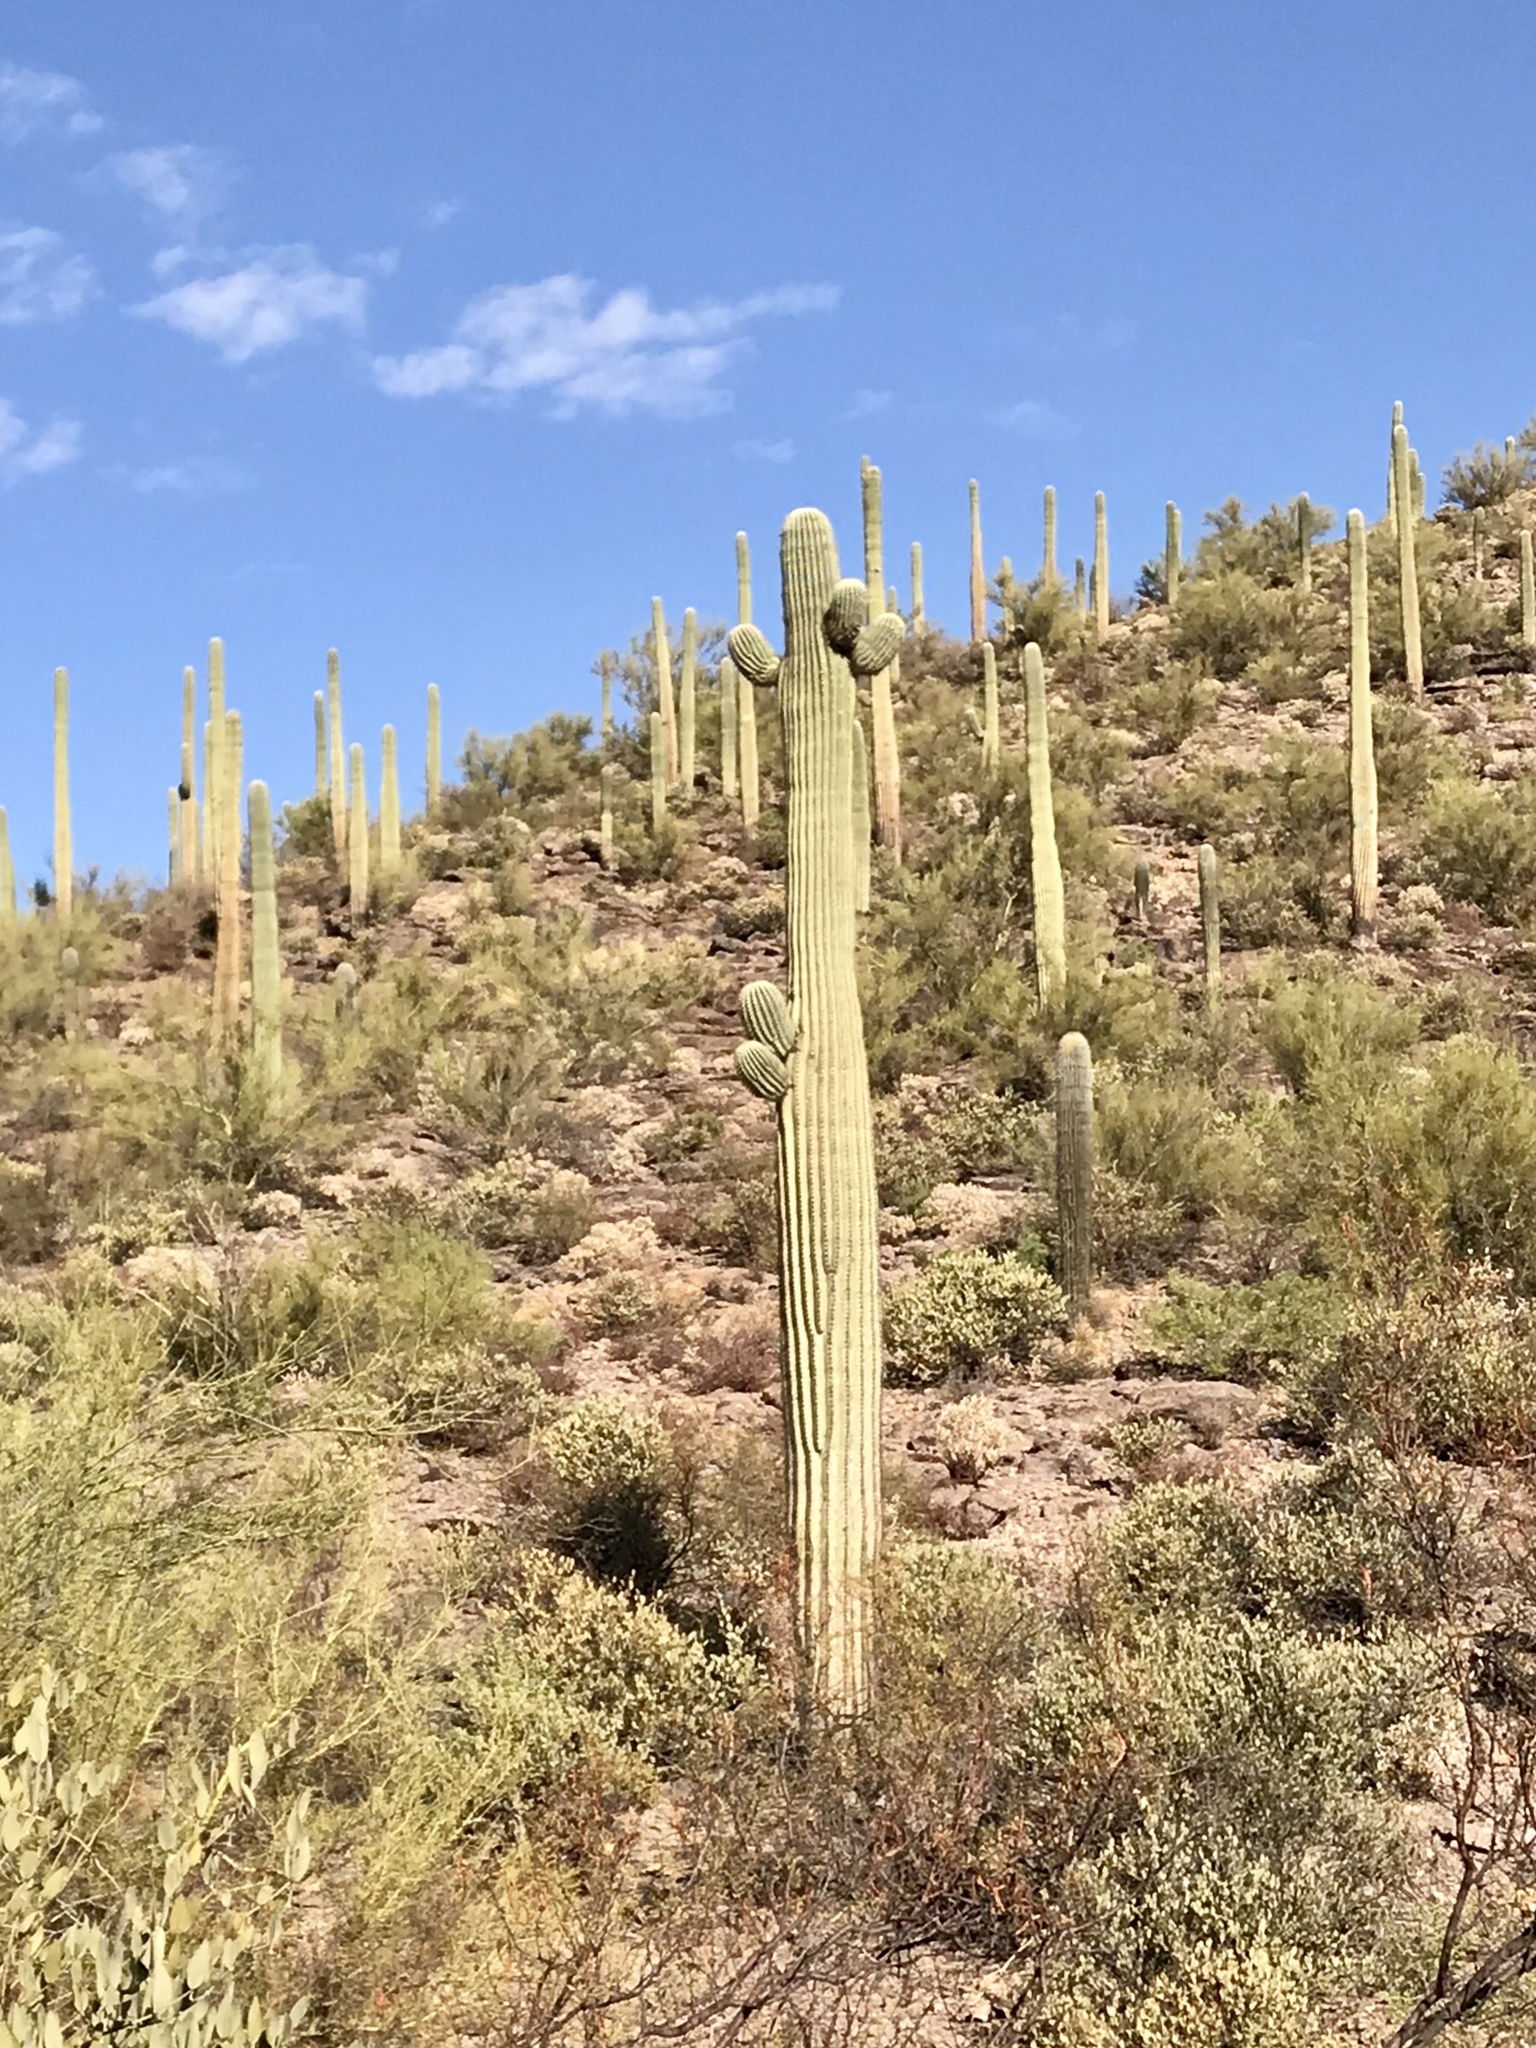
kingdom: Plantae
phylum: Tracheophyta
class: Magnoliopsida
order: Caryophyllales
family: Cactaceae
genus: Carnegiea
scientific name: Carnegiea gigantea
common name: Saguaro
